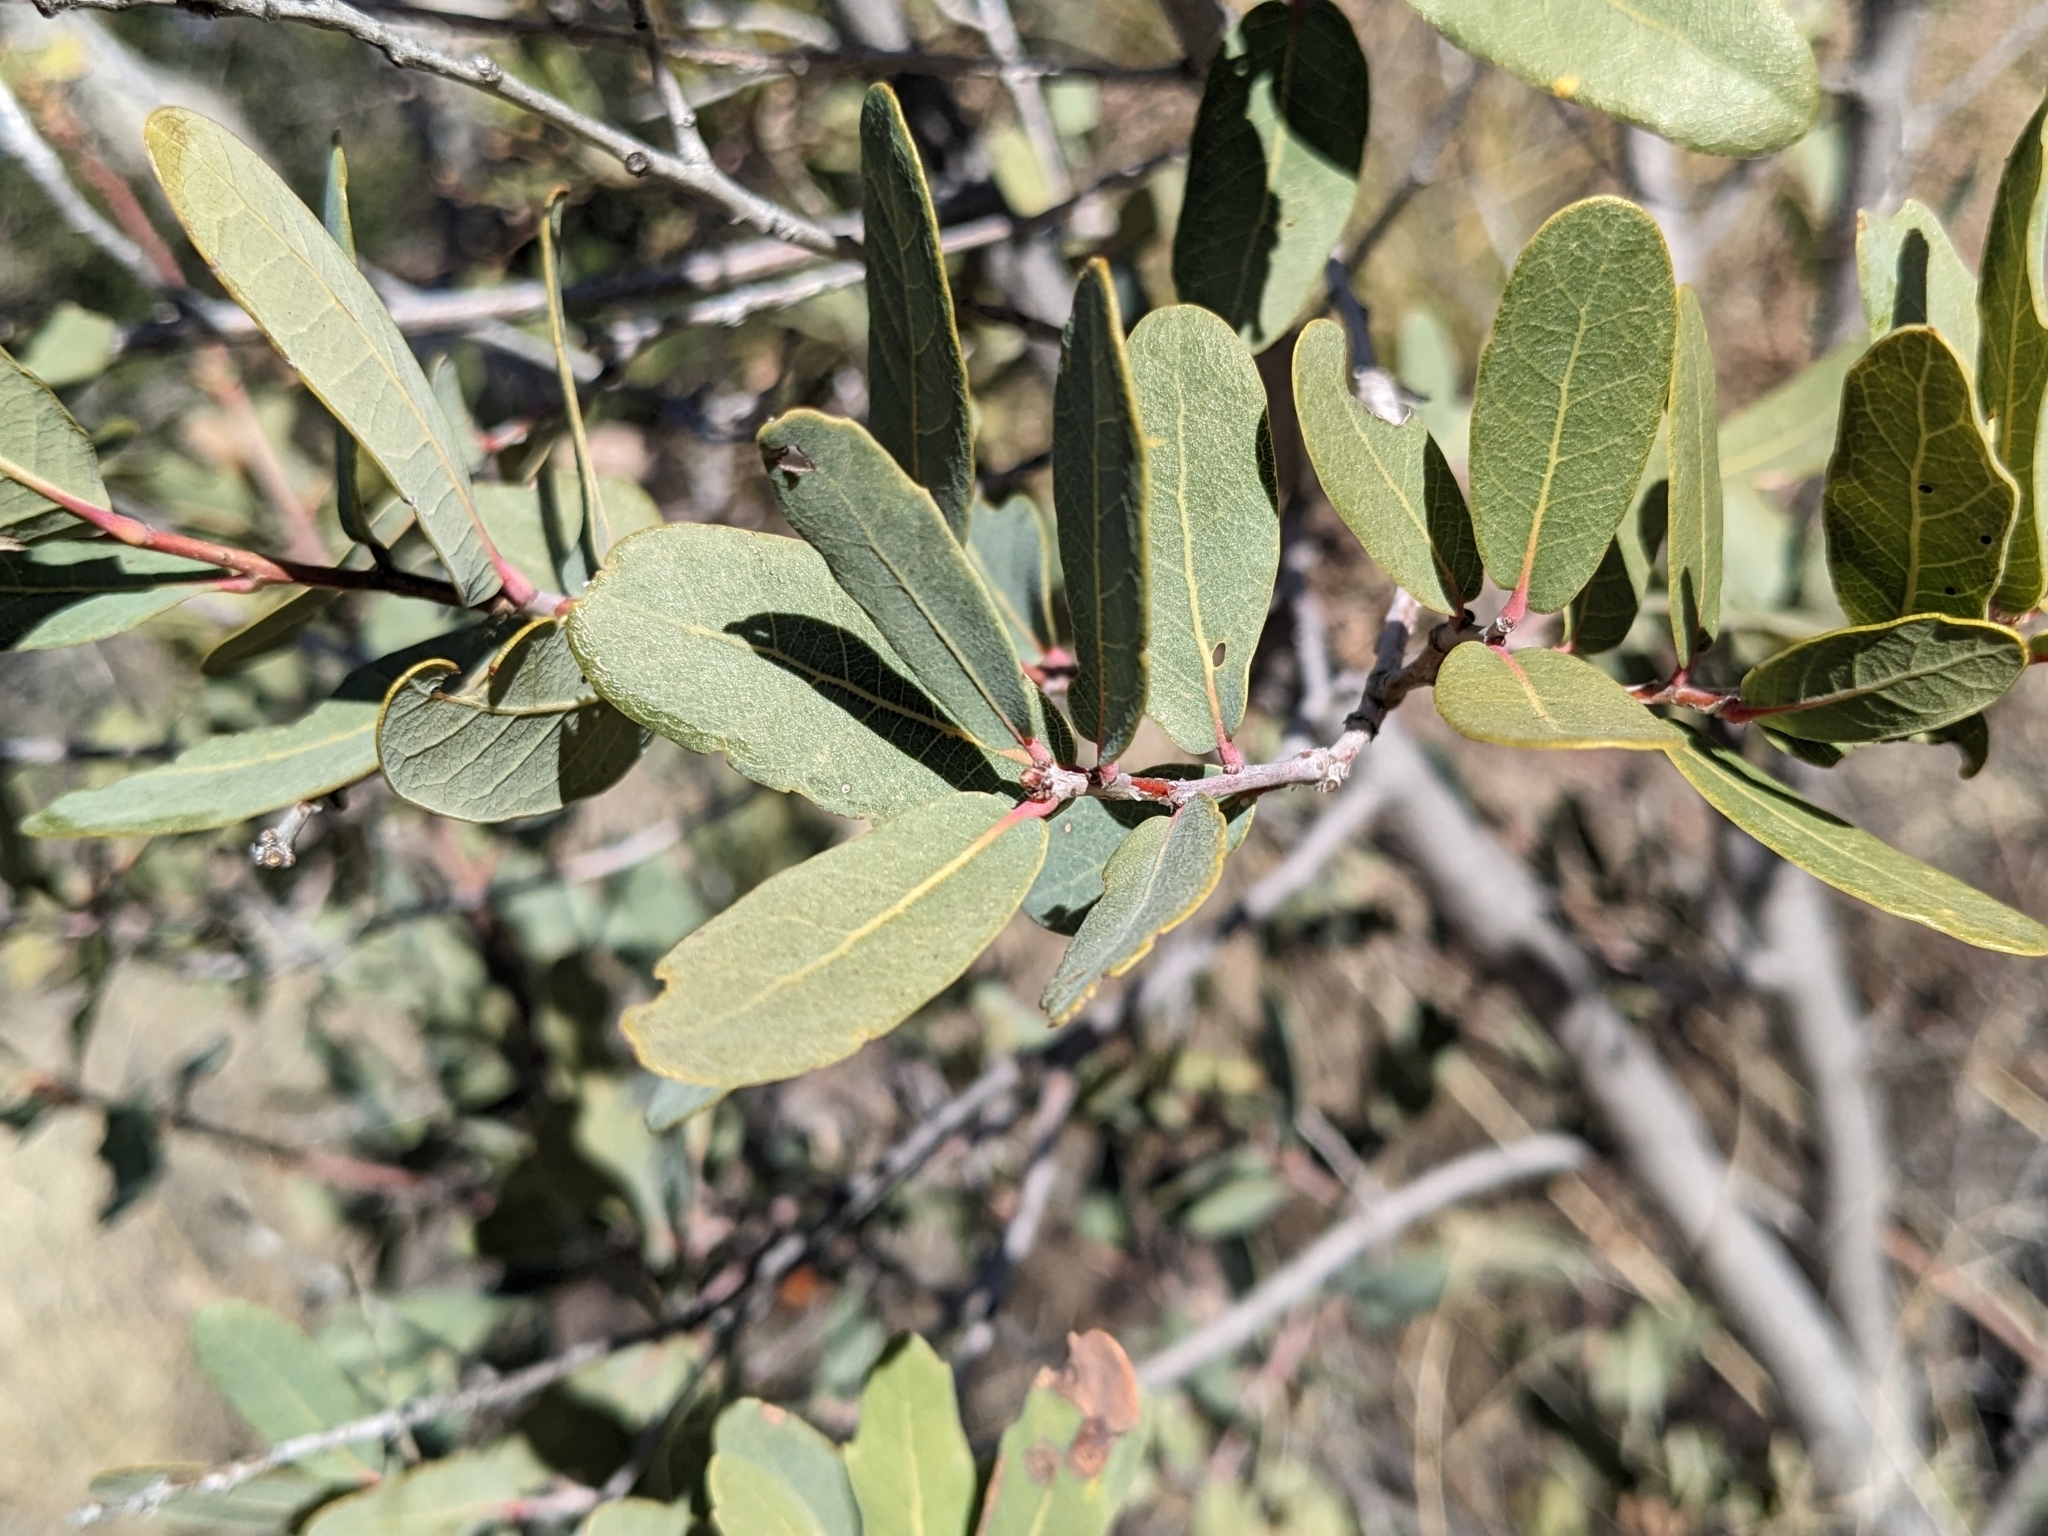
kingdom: Plantae
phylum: Tracheophyta
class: Magnoliopsida
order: Fagales
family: Fagaceae
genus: Quercus
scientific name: Quercus oblongifolia
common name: Mexican blue oak
